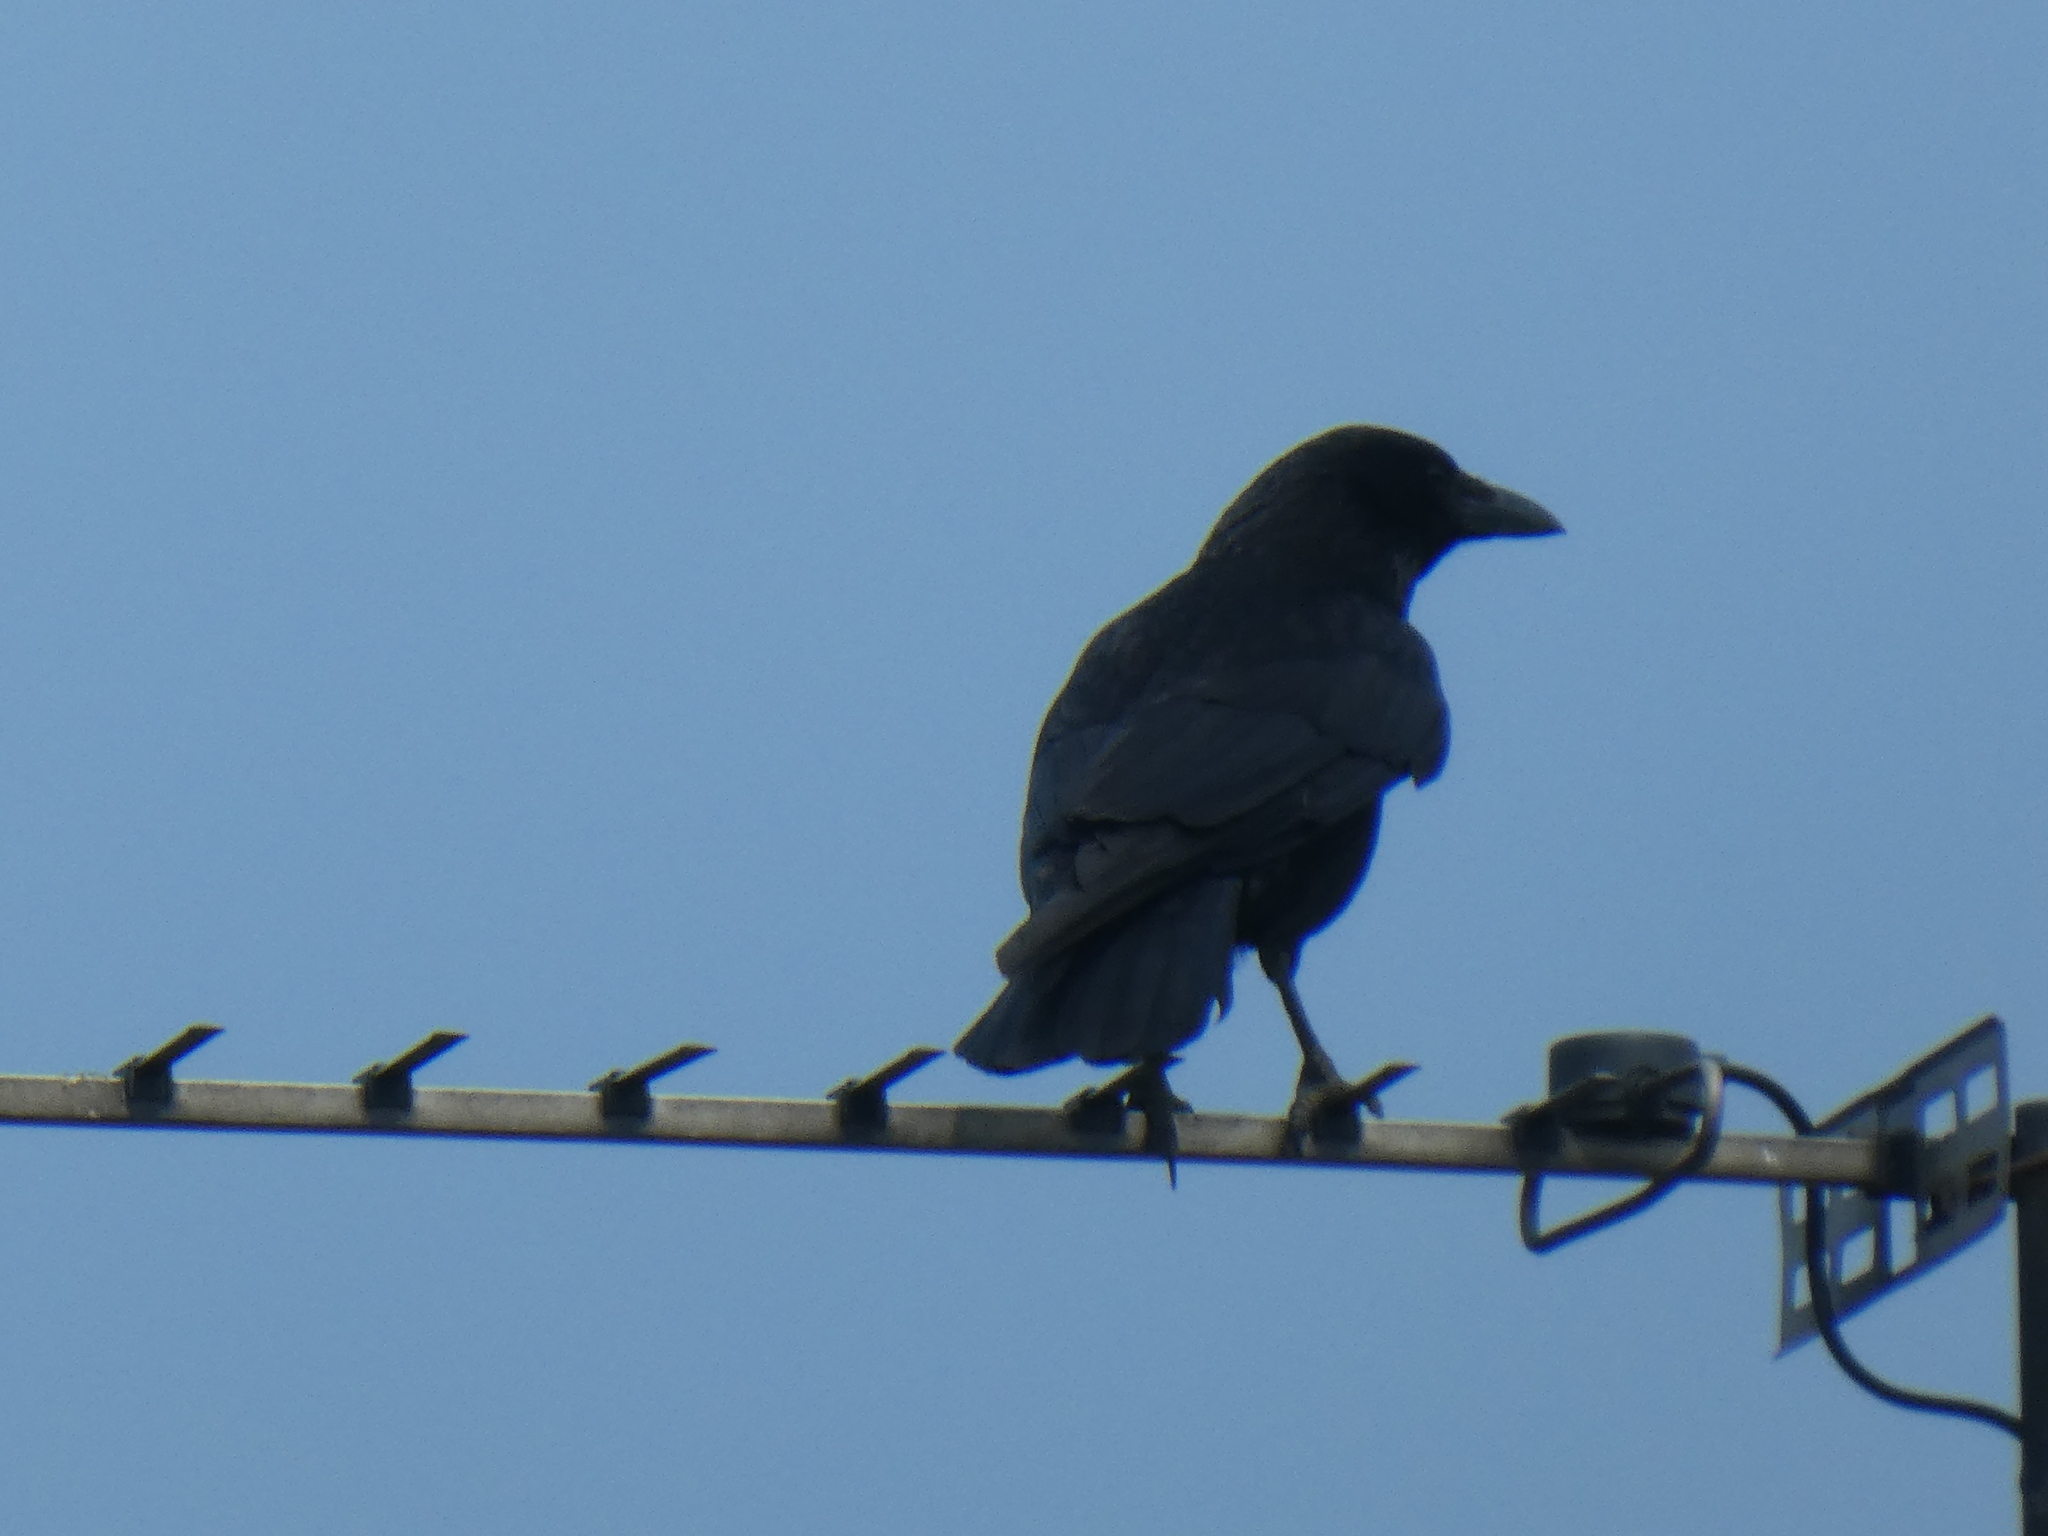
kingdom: Animalia
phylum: Chordata
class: Aves
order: Passeriformes
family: Corvidae
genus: Corvus
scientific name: Corvus corone
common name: Carrion crow
